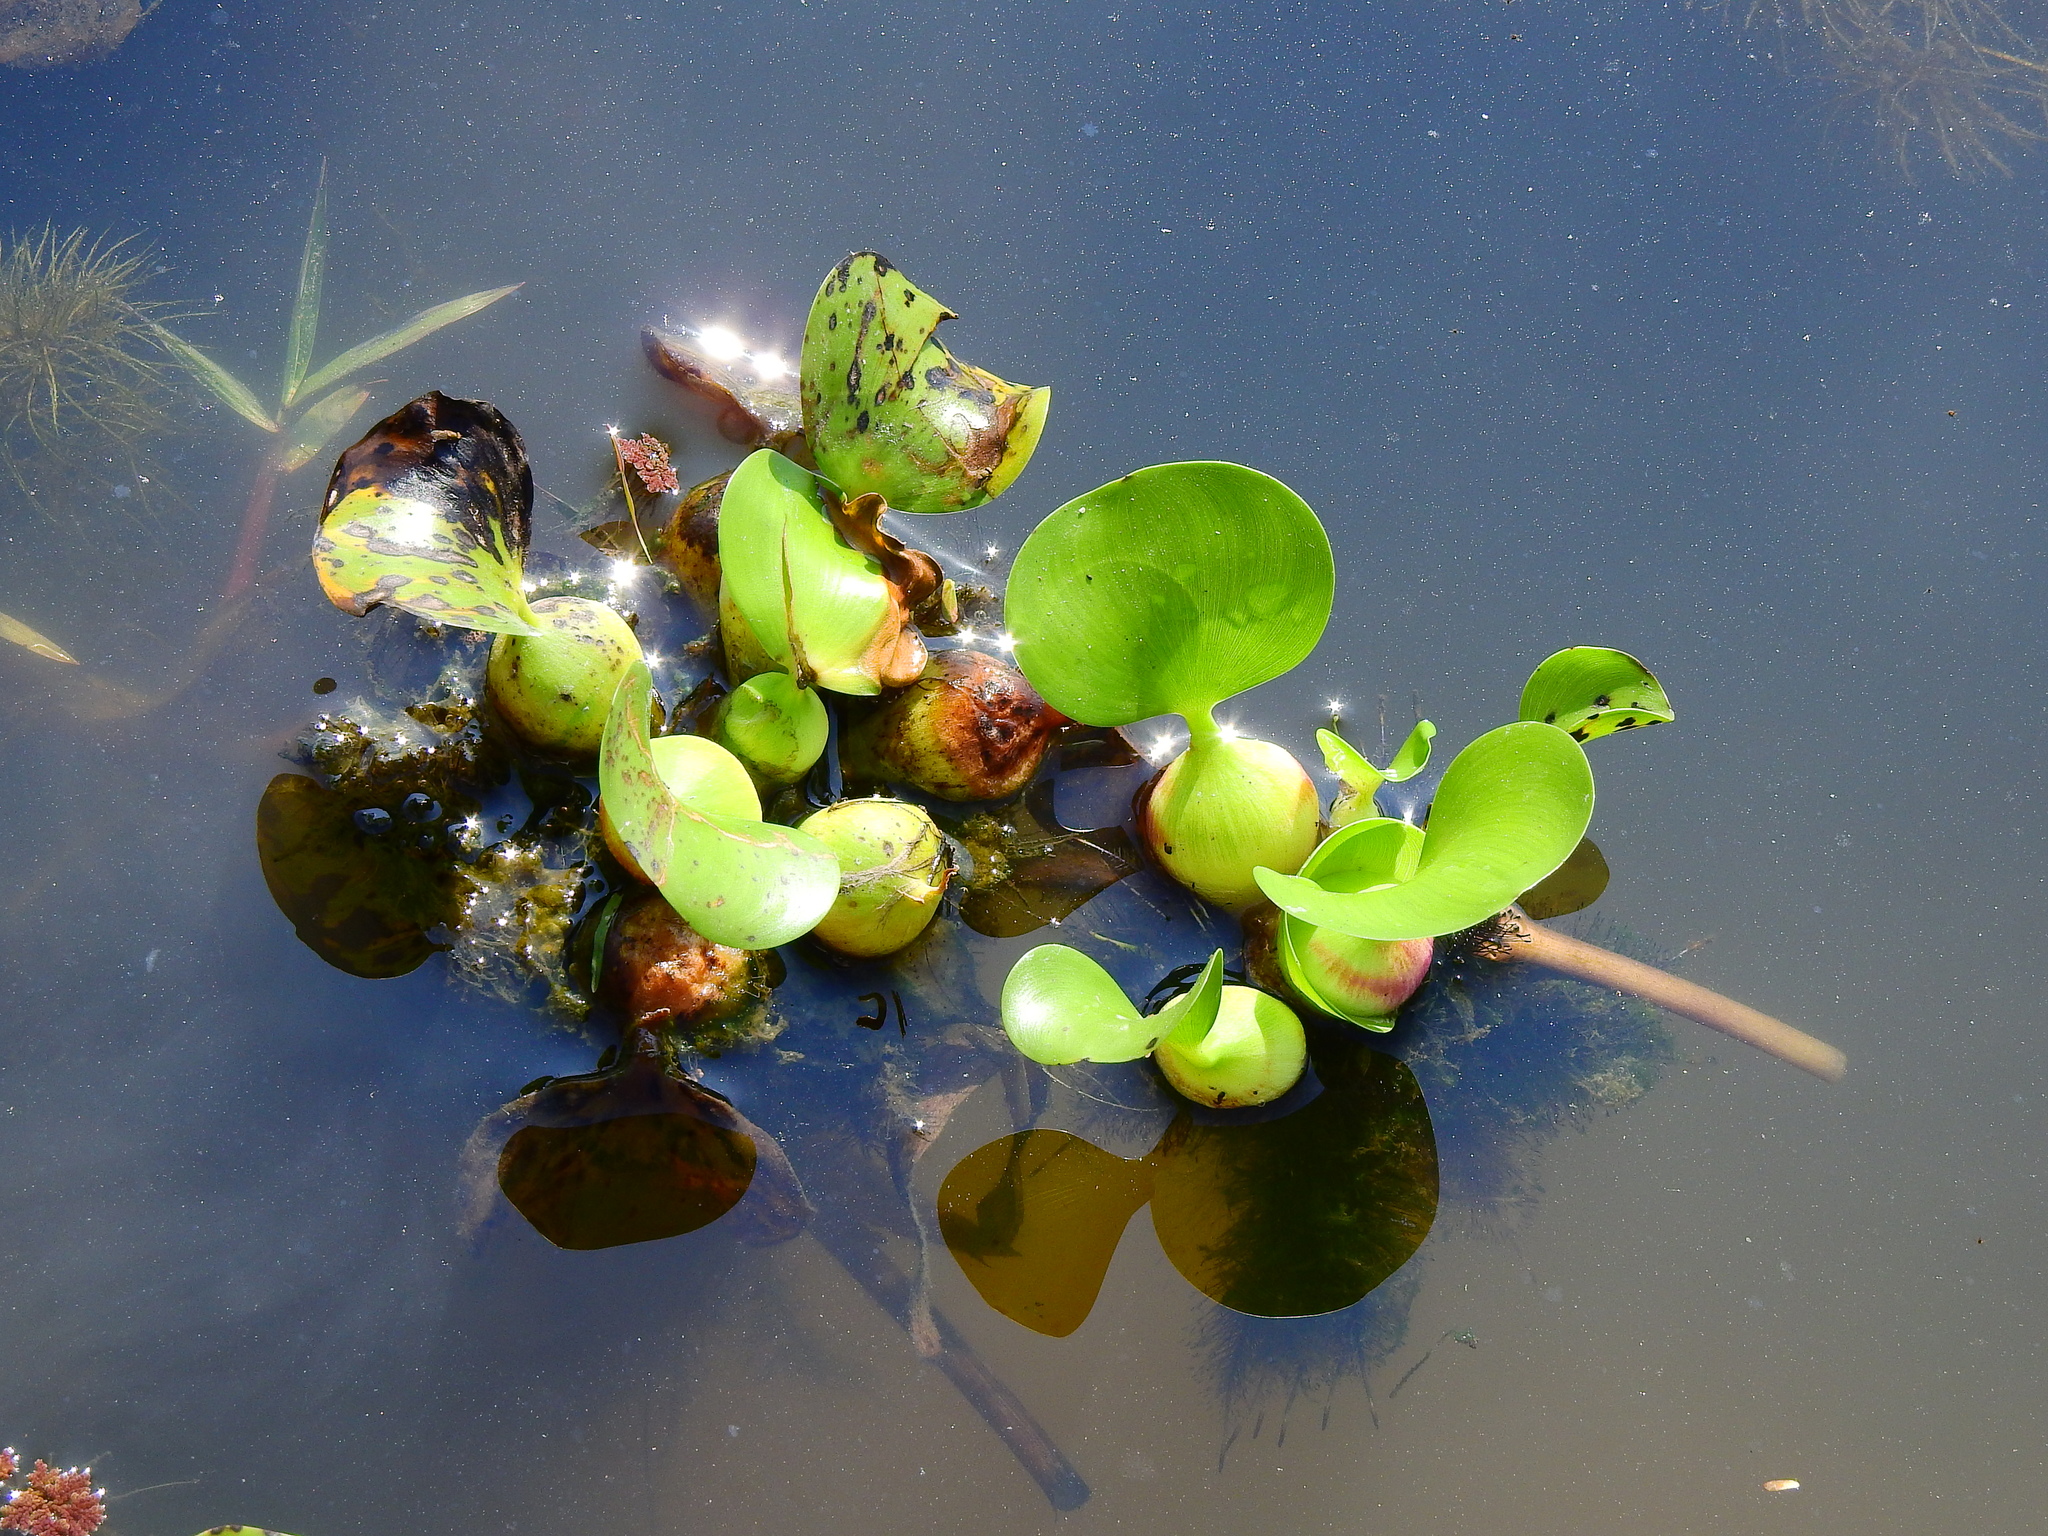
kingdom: Plantae
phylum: Tracheophyta
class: Liliopsida
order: Commelinales
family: Pontederiaceae
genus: Pontederia
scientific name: Pontederia crassipes
